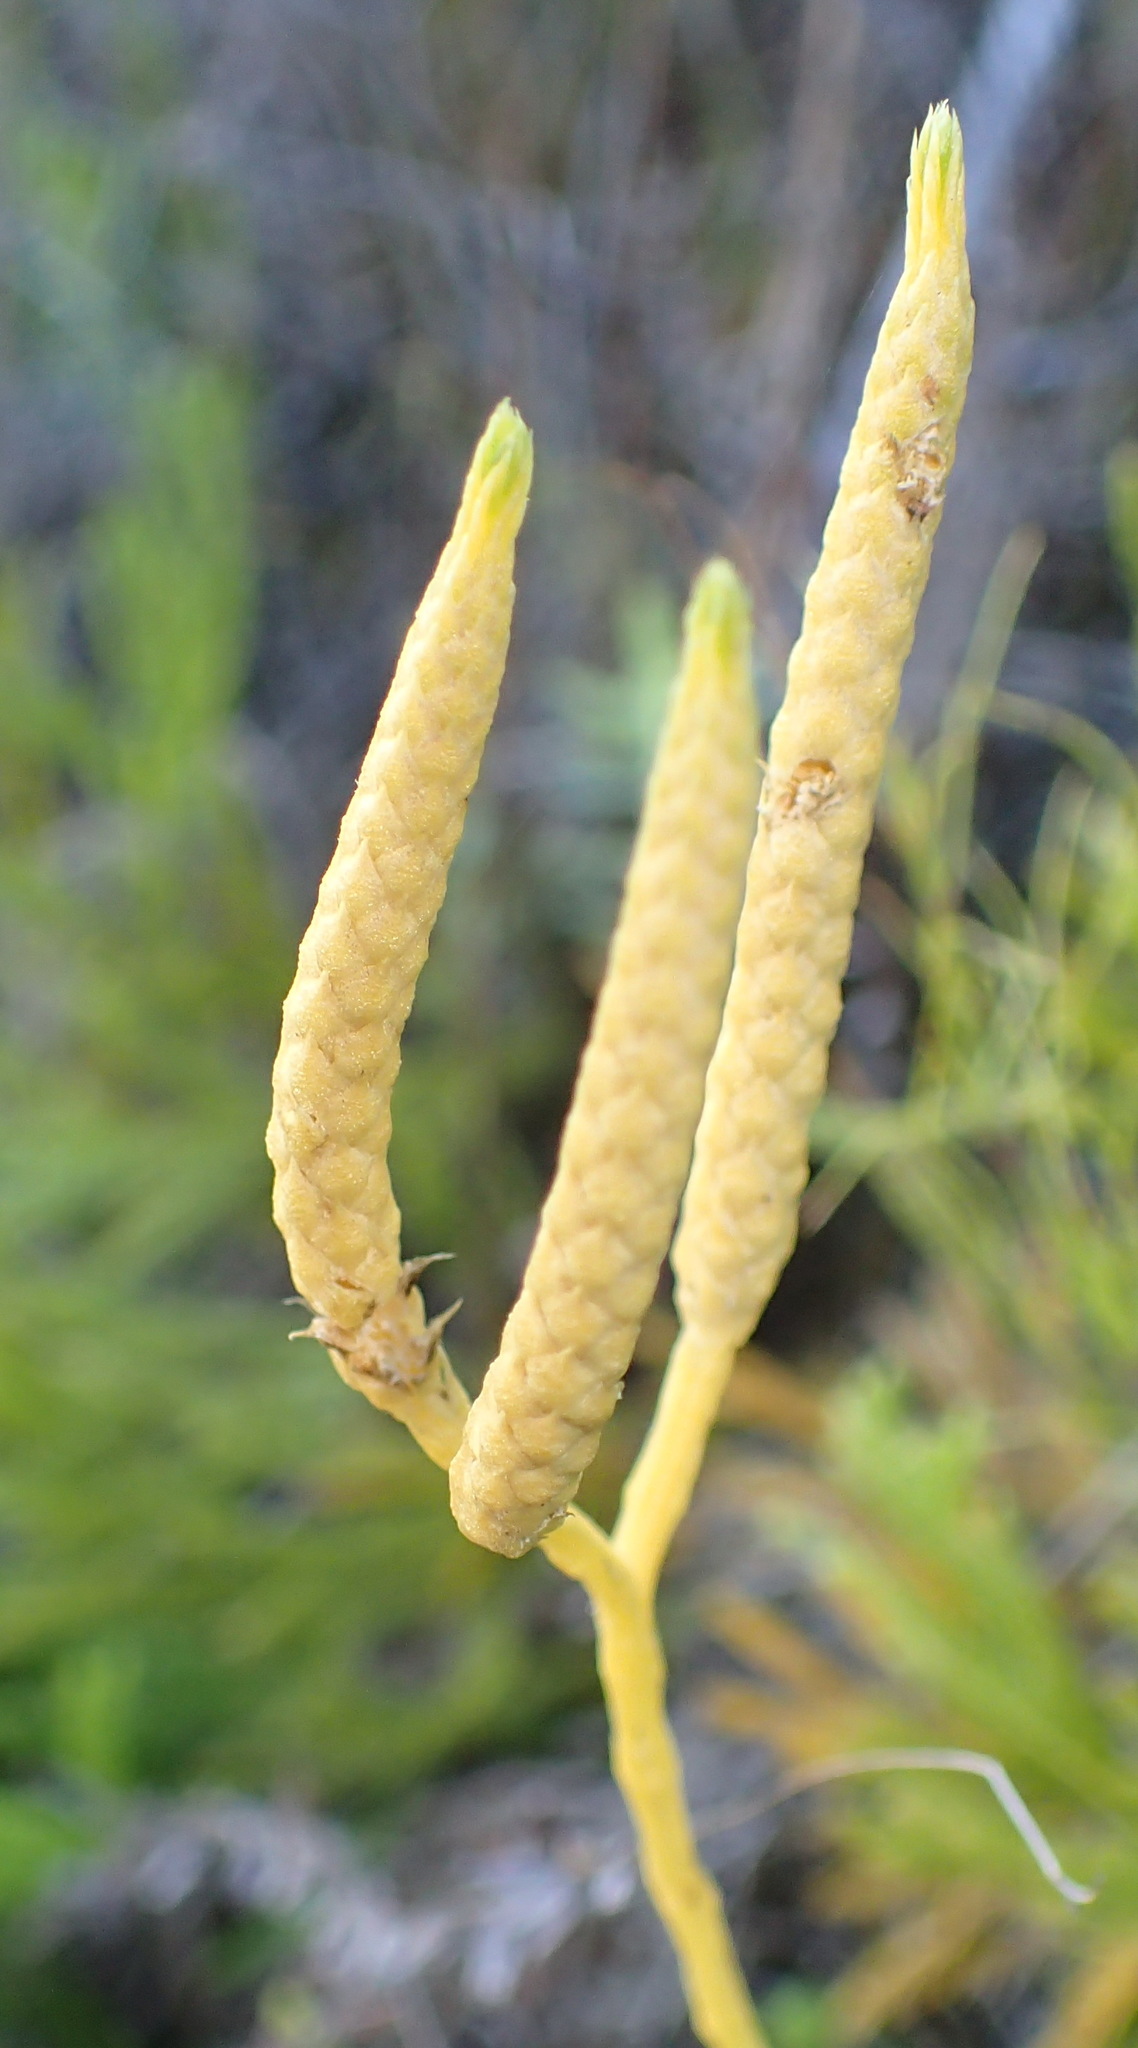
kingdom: Plantae
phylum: Tracheophyta
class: Lycopodiopsida
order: Lycopodiales
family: Lycopodiaceae
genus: Diphasiastrum
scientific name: Diphasiastrum zanclophyllum
